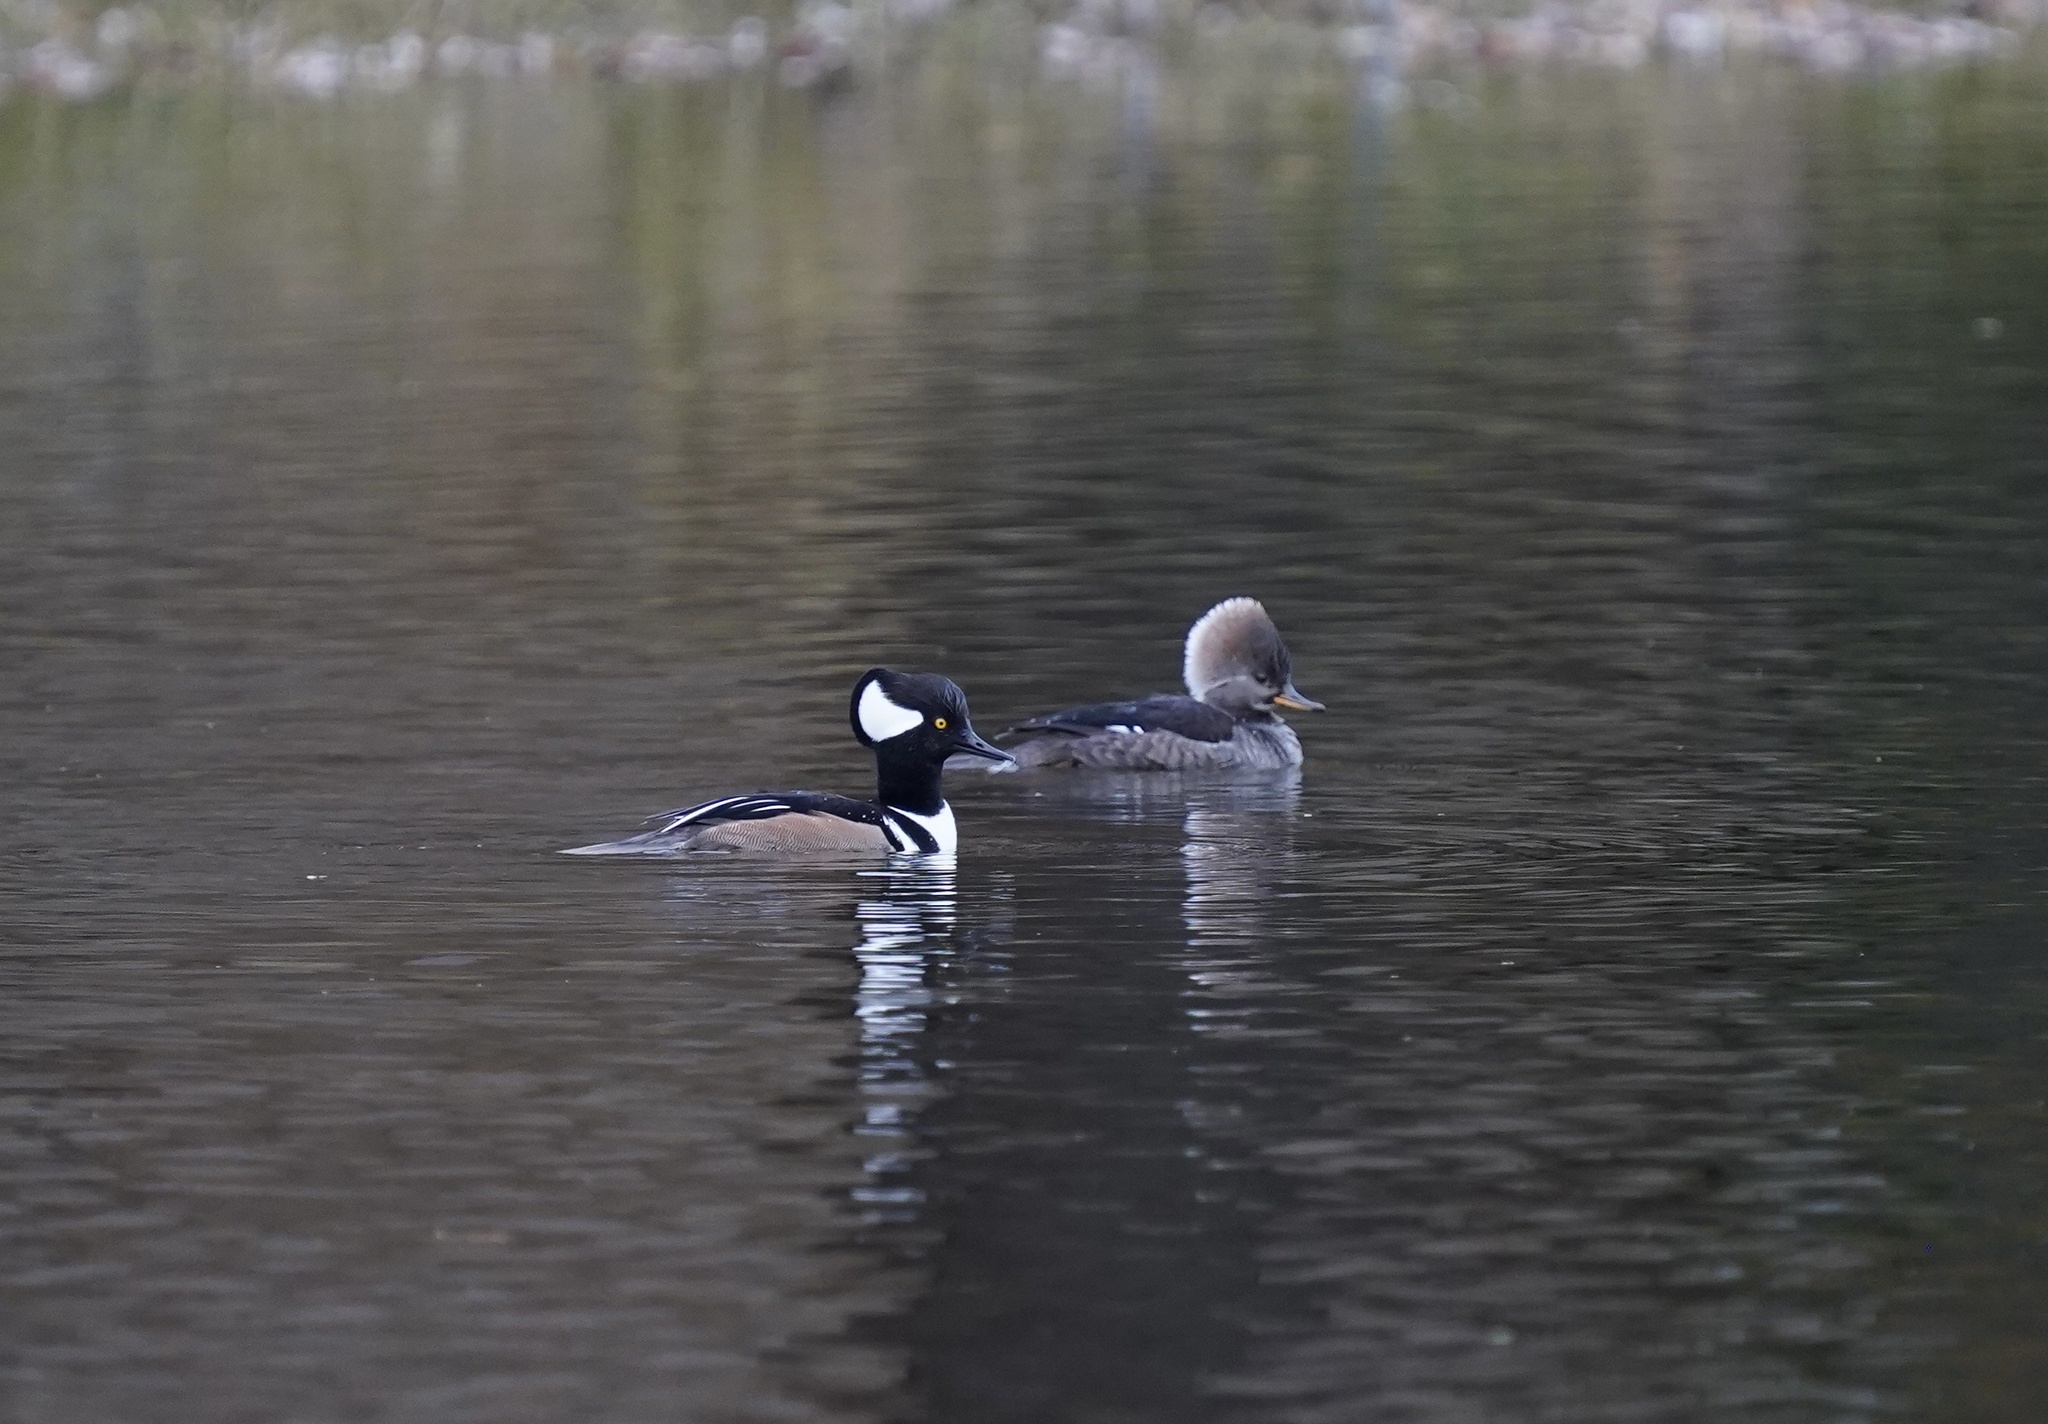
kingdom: Animalia
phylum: Chordata
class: Aves
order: Anseriformes
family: Anatidae
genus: Lophodytes
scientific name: Lophodytes cucullatus
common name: Hooded merganser
